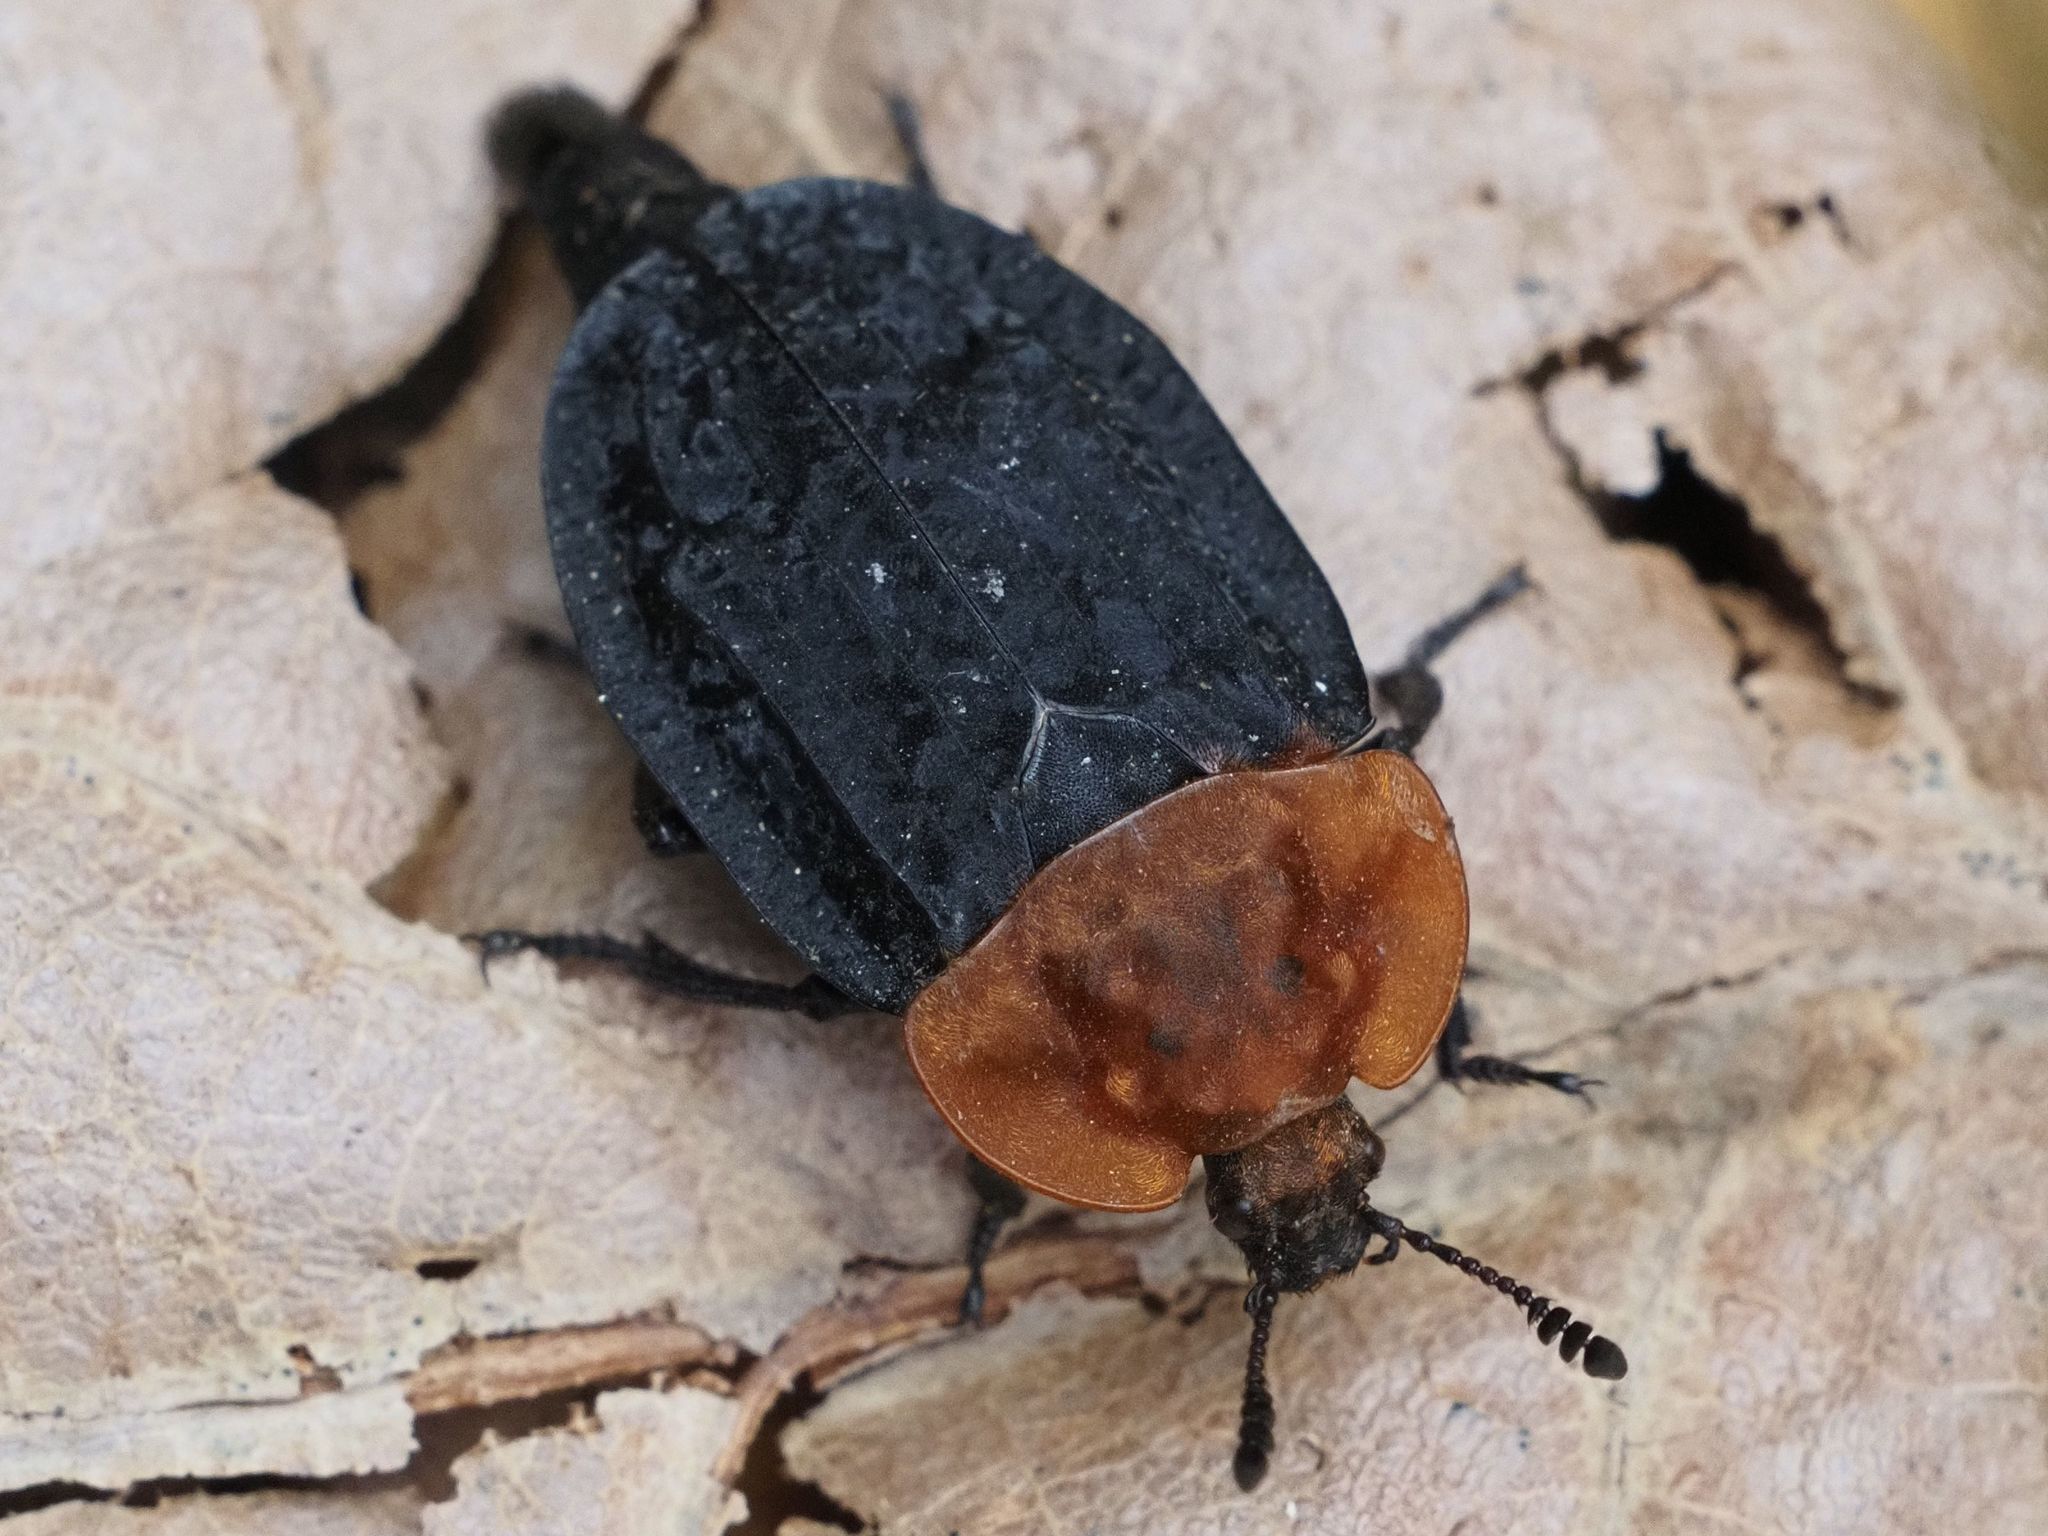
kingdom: Animalia
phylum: Arthropoda
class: Insecta
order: Coleoptera
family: Staphylinidae
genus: Oiceoptoma
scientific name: Oiceoptoma thoracicum
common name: Red-breasted carrion beetle
